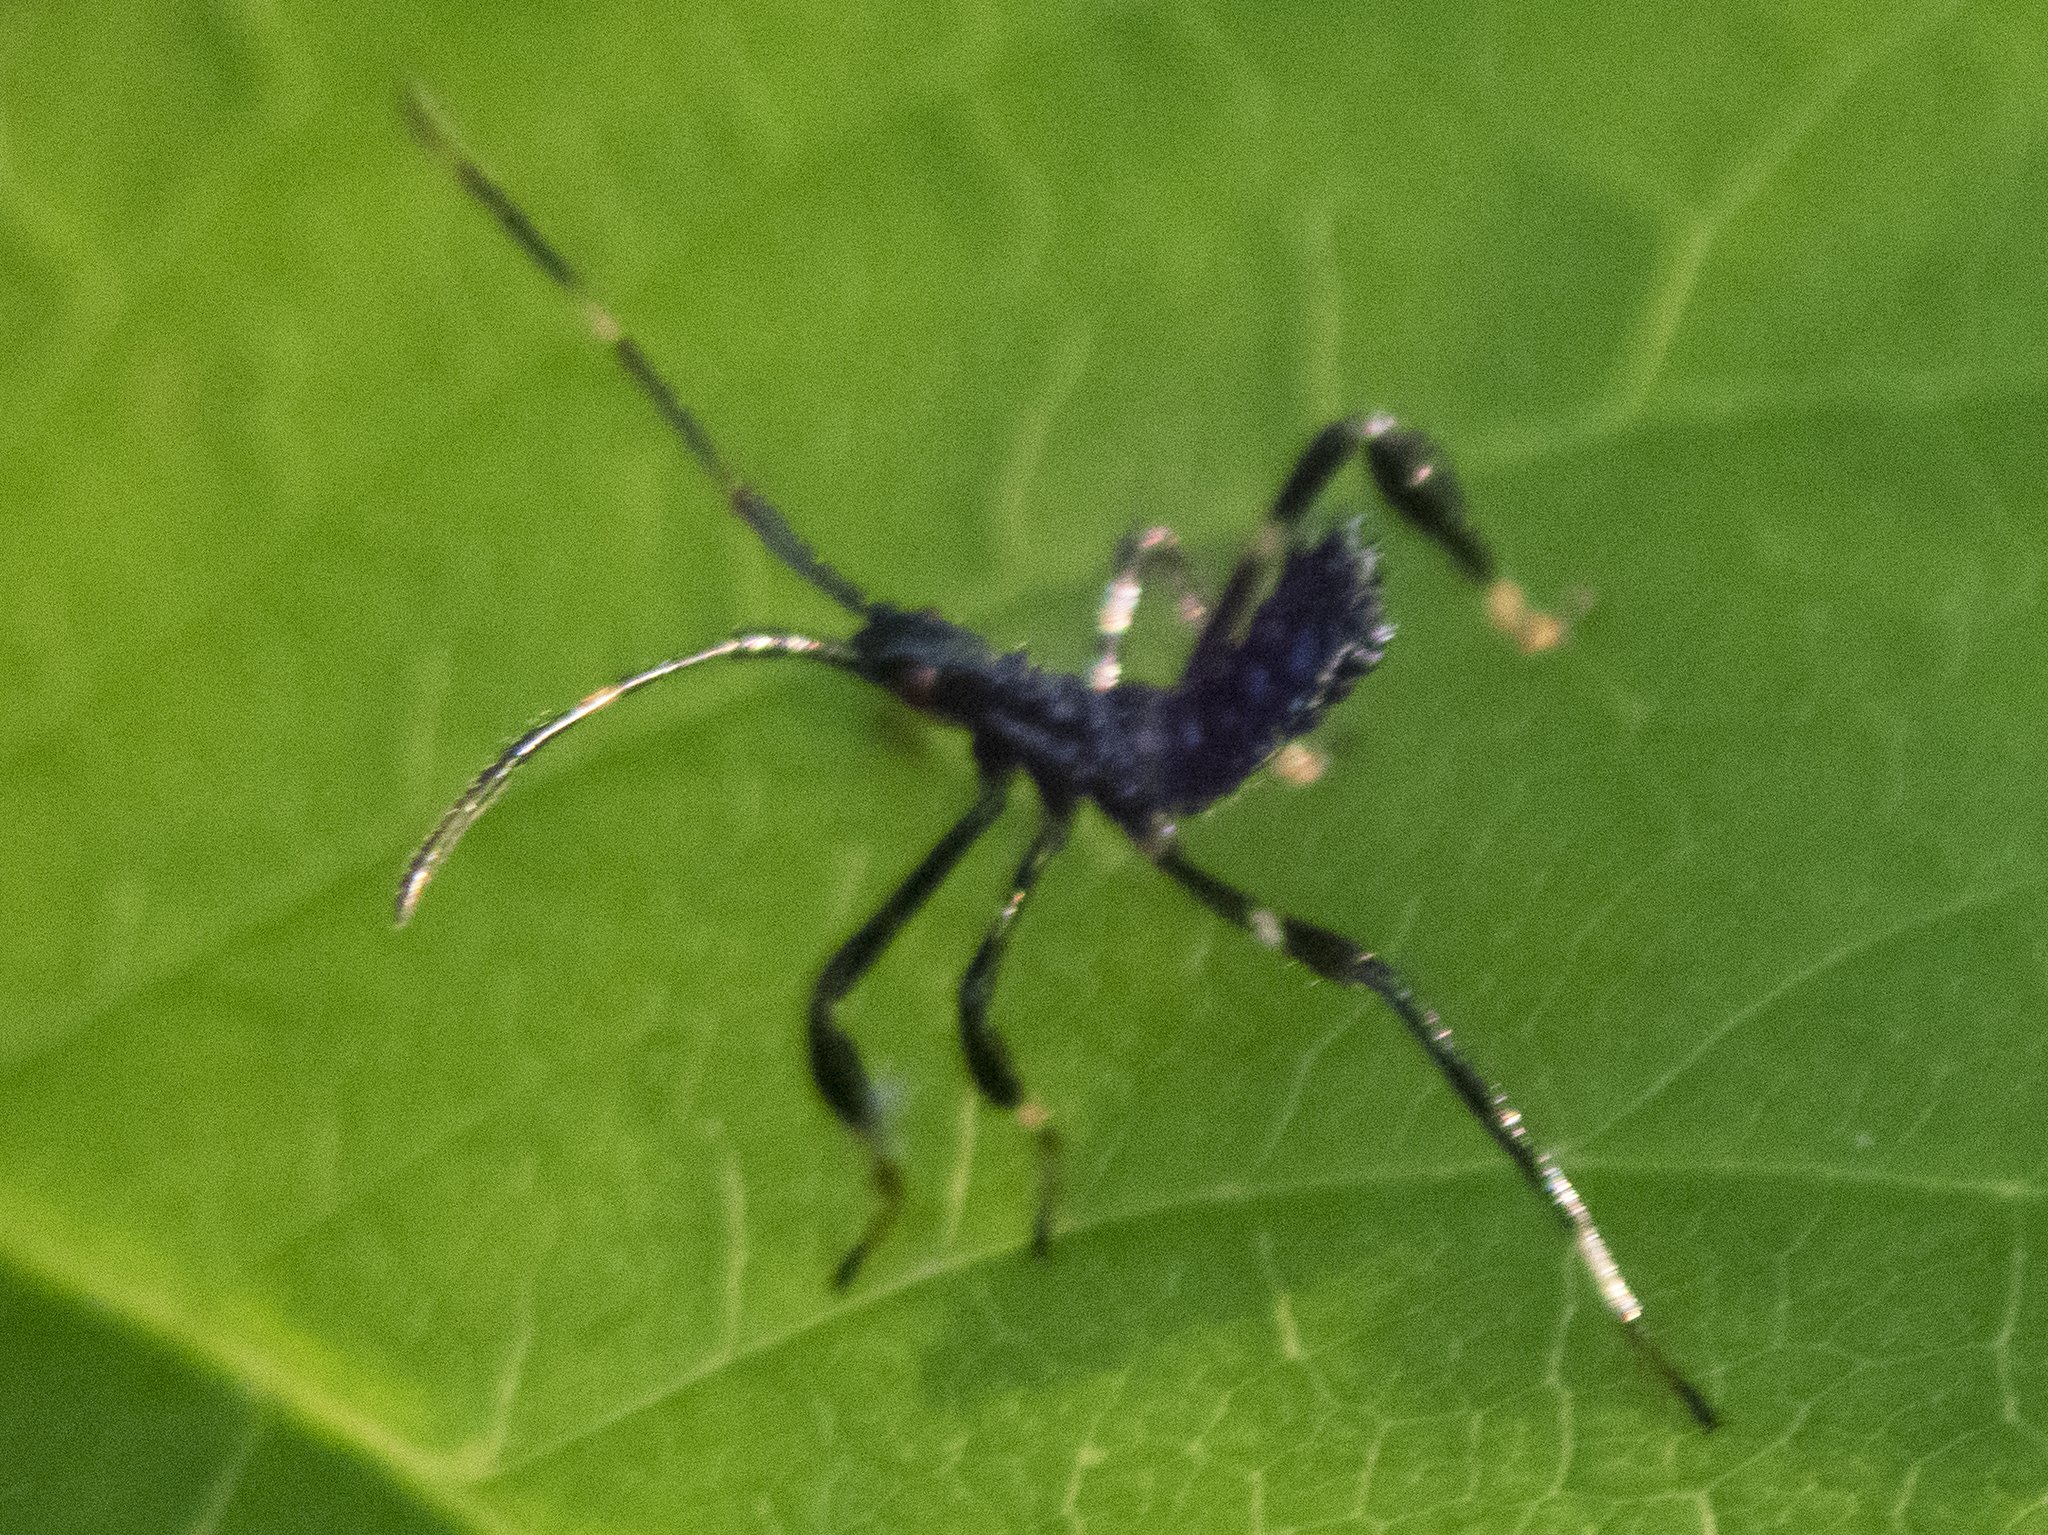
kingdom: Animalia
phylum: Arthropoda
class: Insecta
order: Hemiptera
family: Coreidae
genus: Acanthocephala
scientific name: Acanthocephala terminalis
